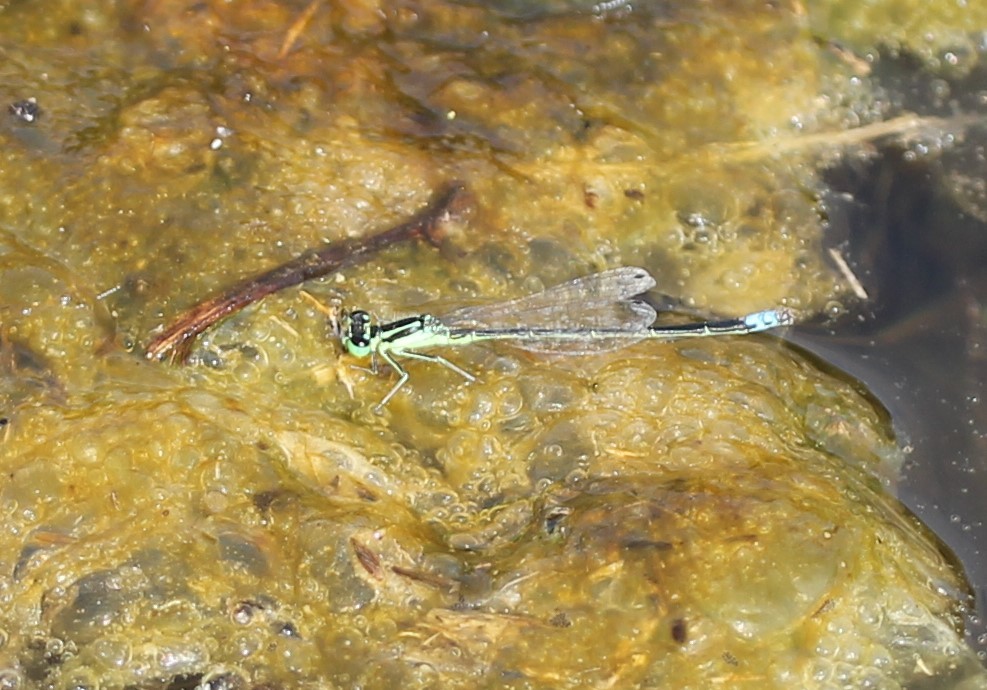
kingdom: Animalia
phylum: Arthropoda
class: Insecta
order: Odonata
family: Coenagrionidae
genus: Ischnura
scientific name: Ischnura verticalis
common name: Eastern forktail
